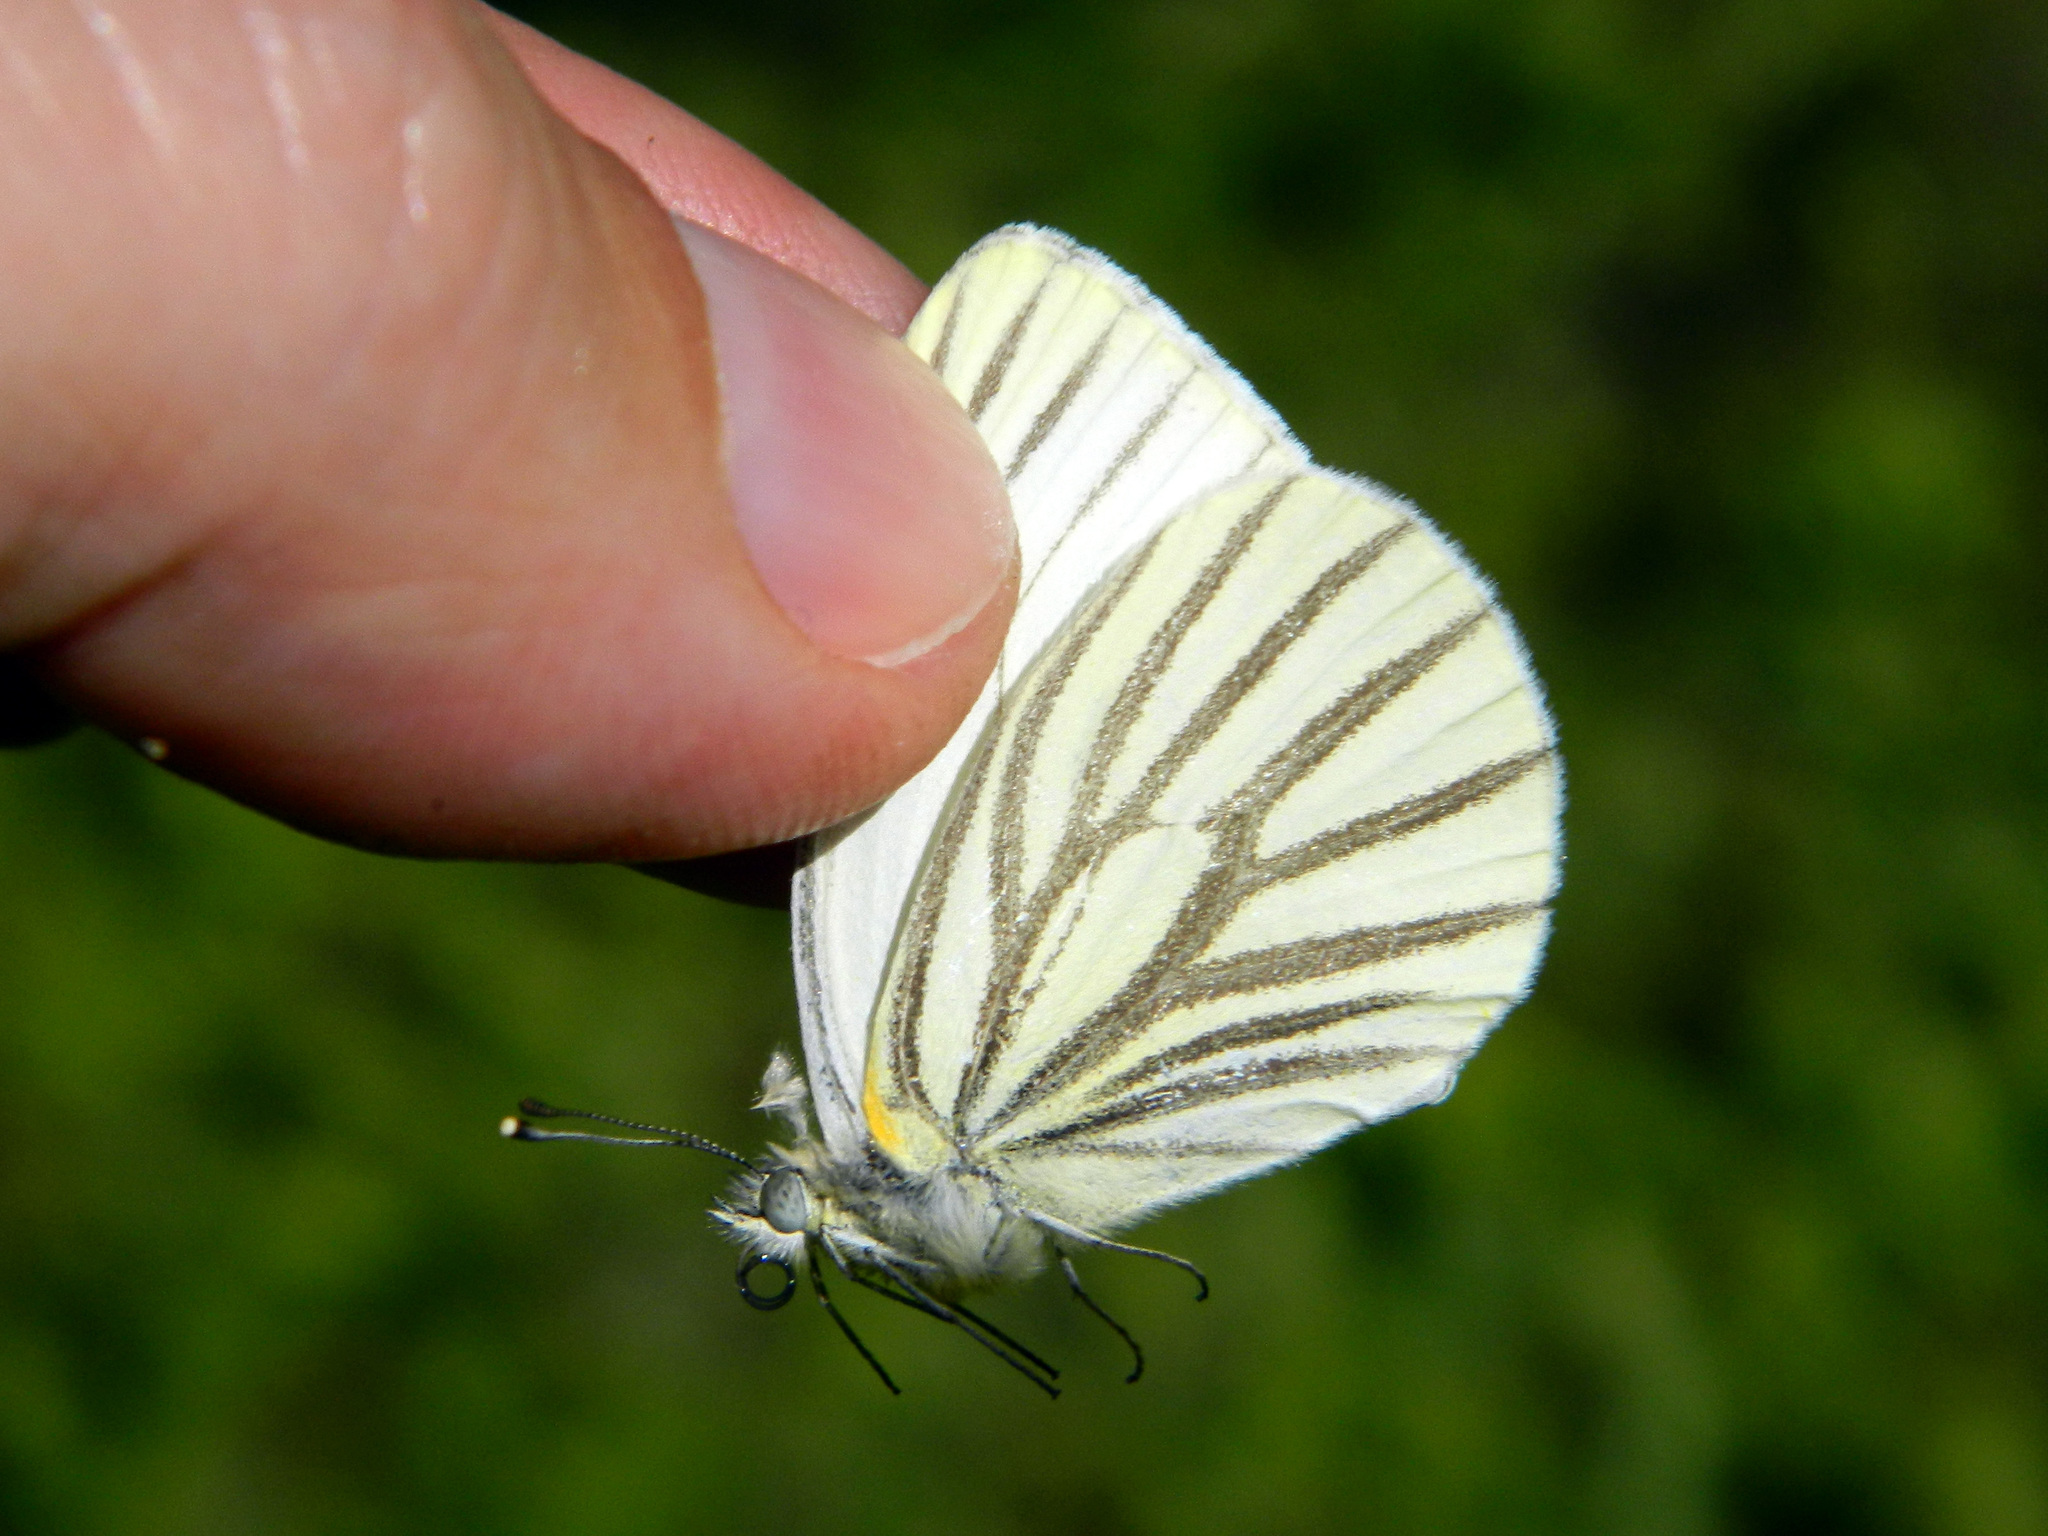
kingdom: Animalia
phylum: Arthropoda
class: Insecta
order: Lepidoptera
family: Pieridae
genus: Pieris
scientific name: Pieris oleracea
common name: Mustard white
